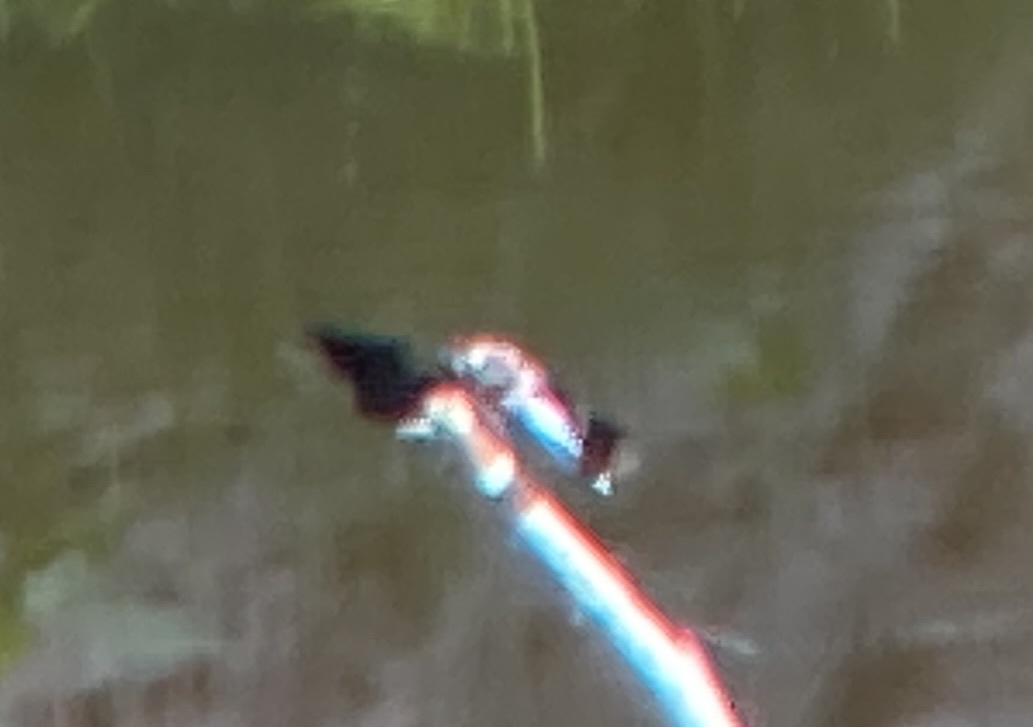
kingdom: Animalia
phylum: Arthropoda
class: Insecta
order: Odonata
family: Libellulidae
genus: Plathemis
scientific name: Plathemis lydia
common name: Common whitetail
